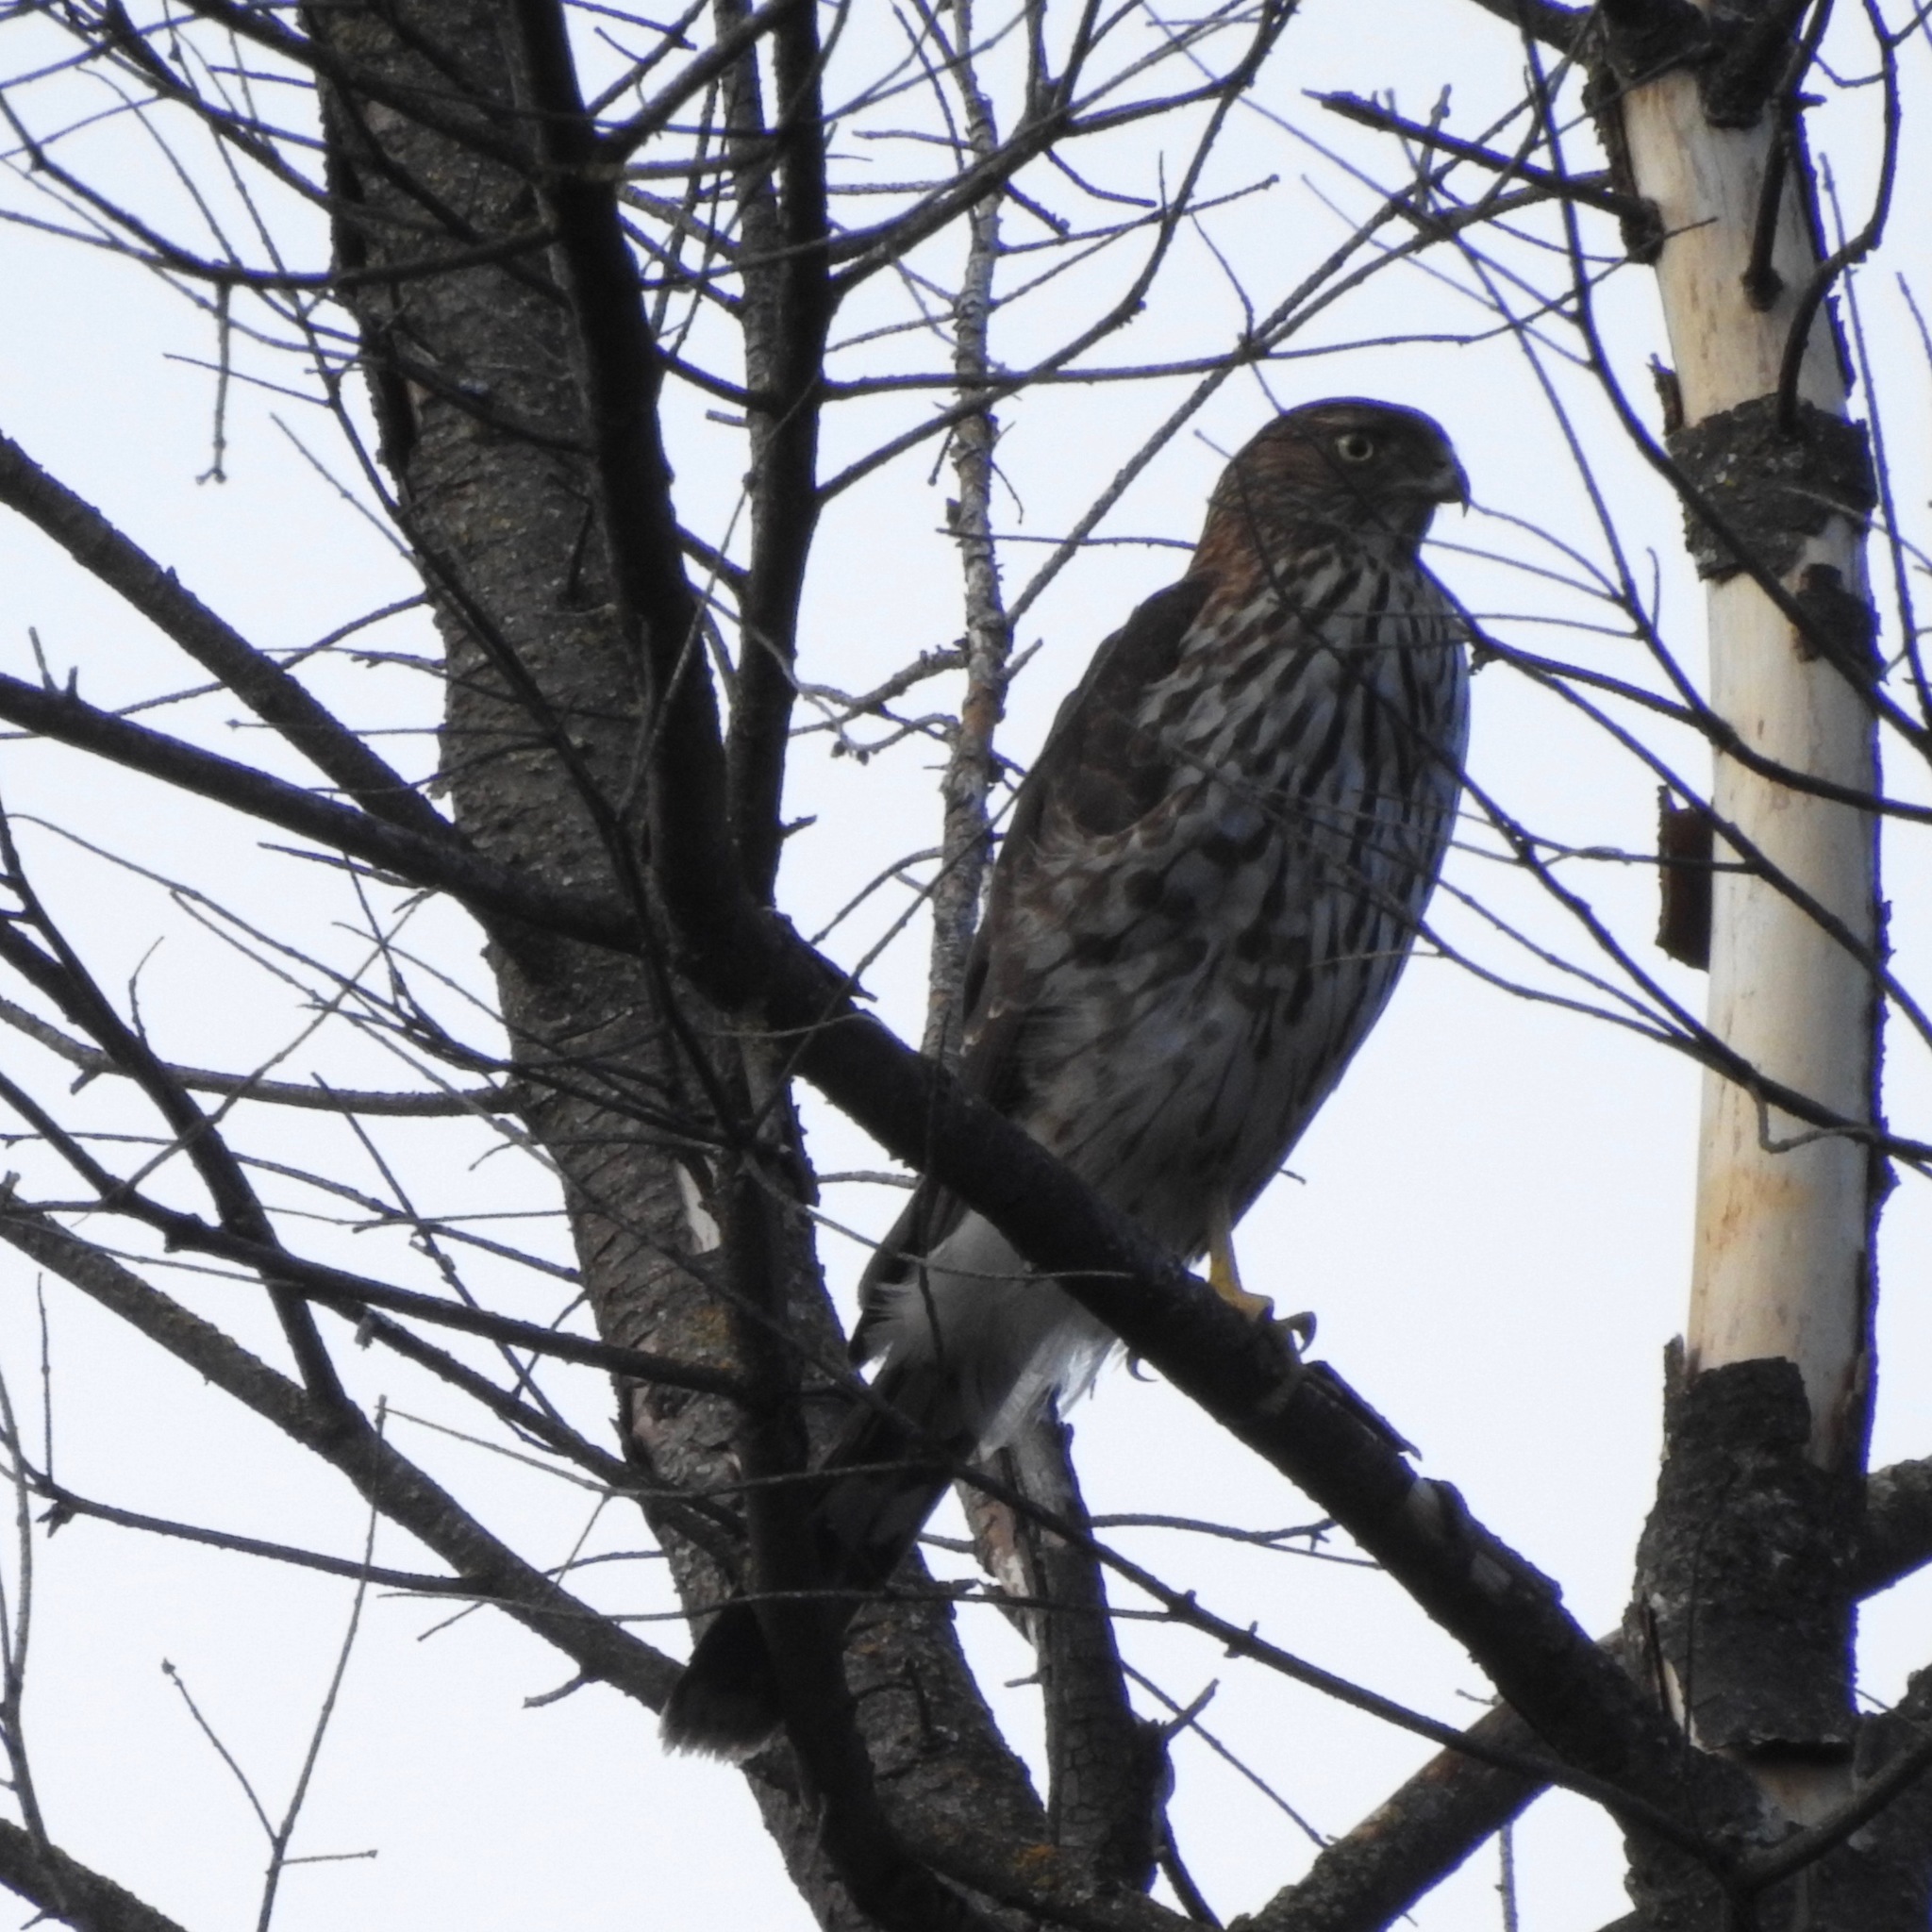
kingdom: Animalia
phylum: Chordata
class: Aves
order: Accipitriformes
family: Accipitridae
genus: Accipiter
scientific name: Accipiter cooperii
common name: Cooper's hawk
